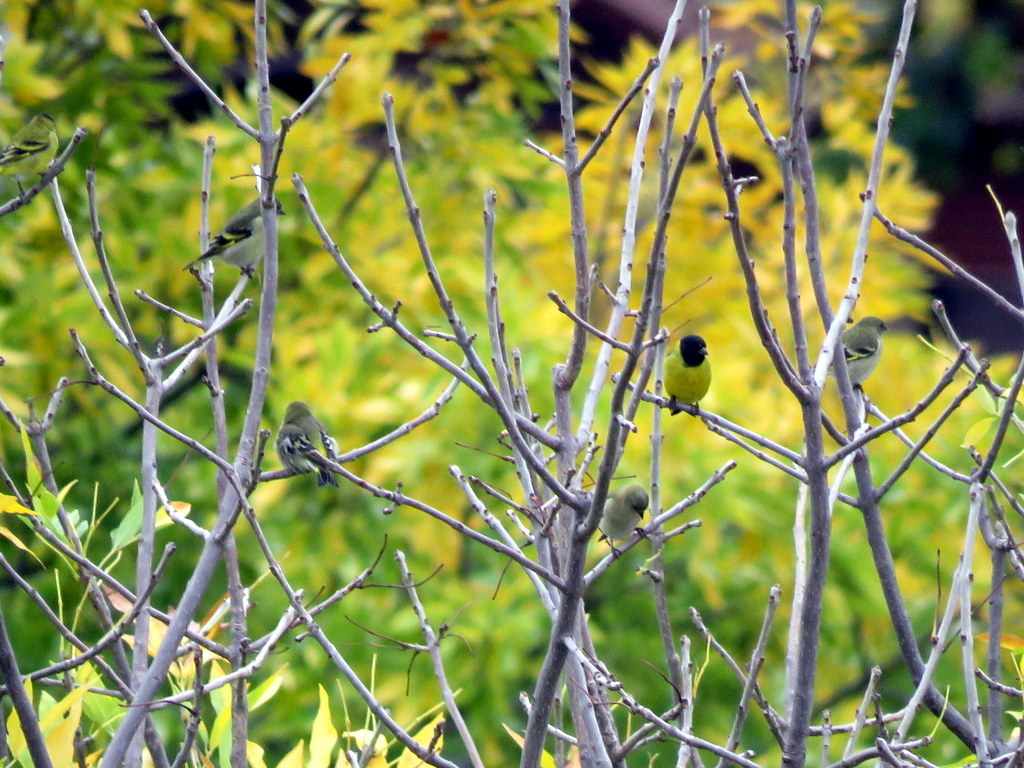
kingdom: Animalia
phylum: Chordata
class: Aves
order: Passeriformes
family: Fringillidae
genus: Spinus
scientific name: Spinus magellanicus
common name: Hooded siskin
